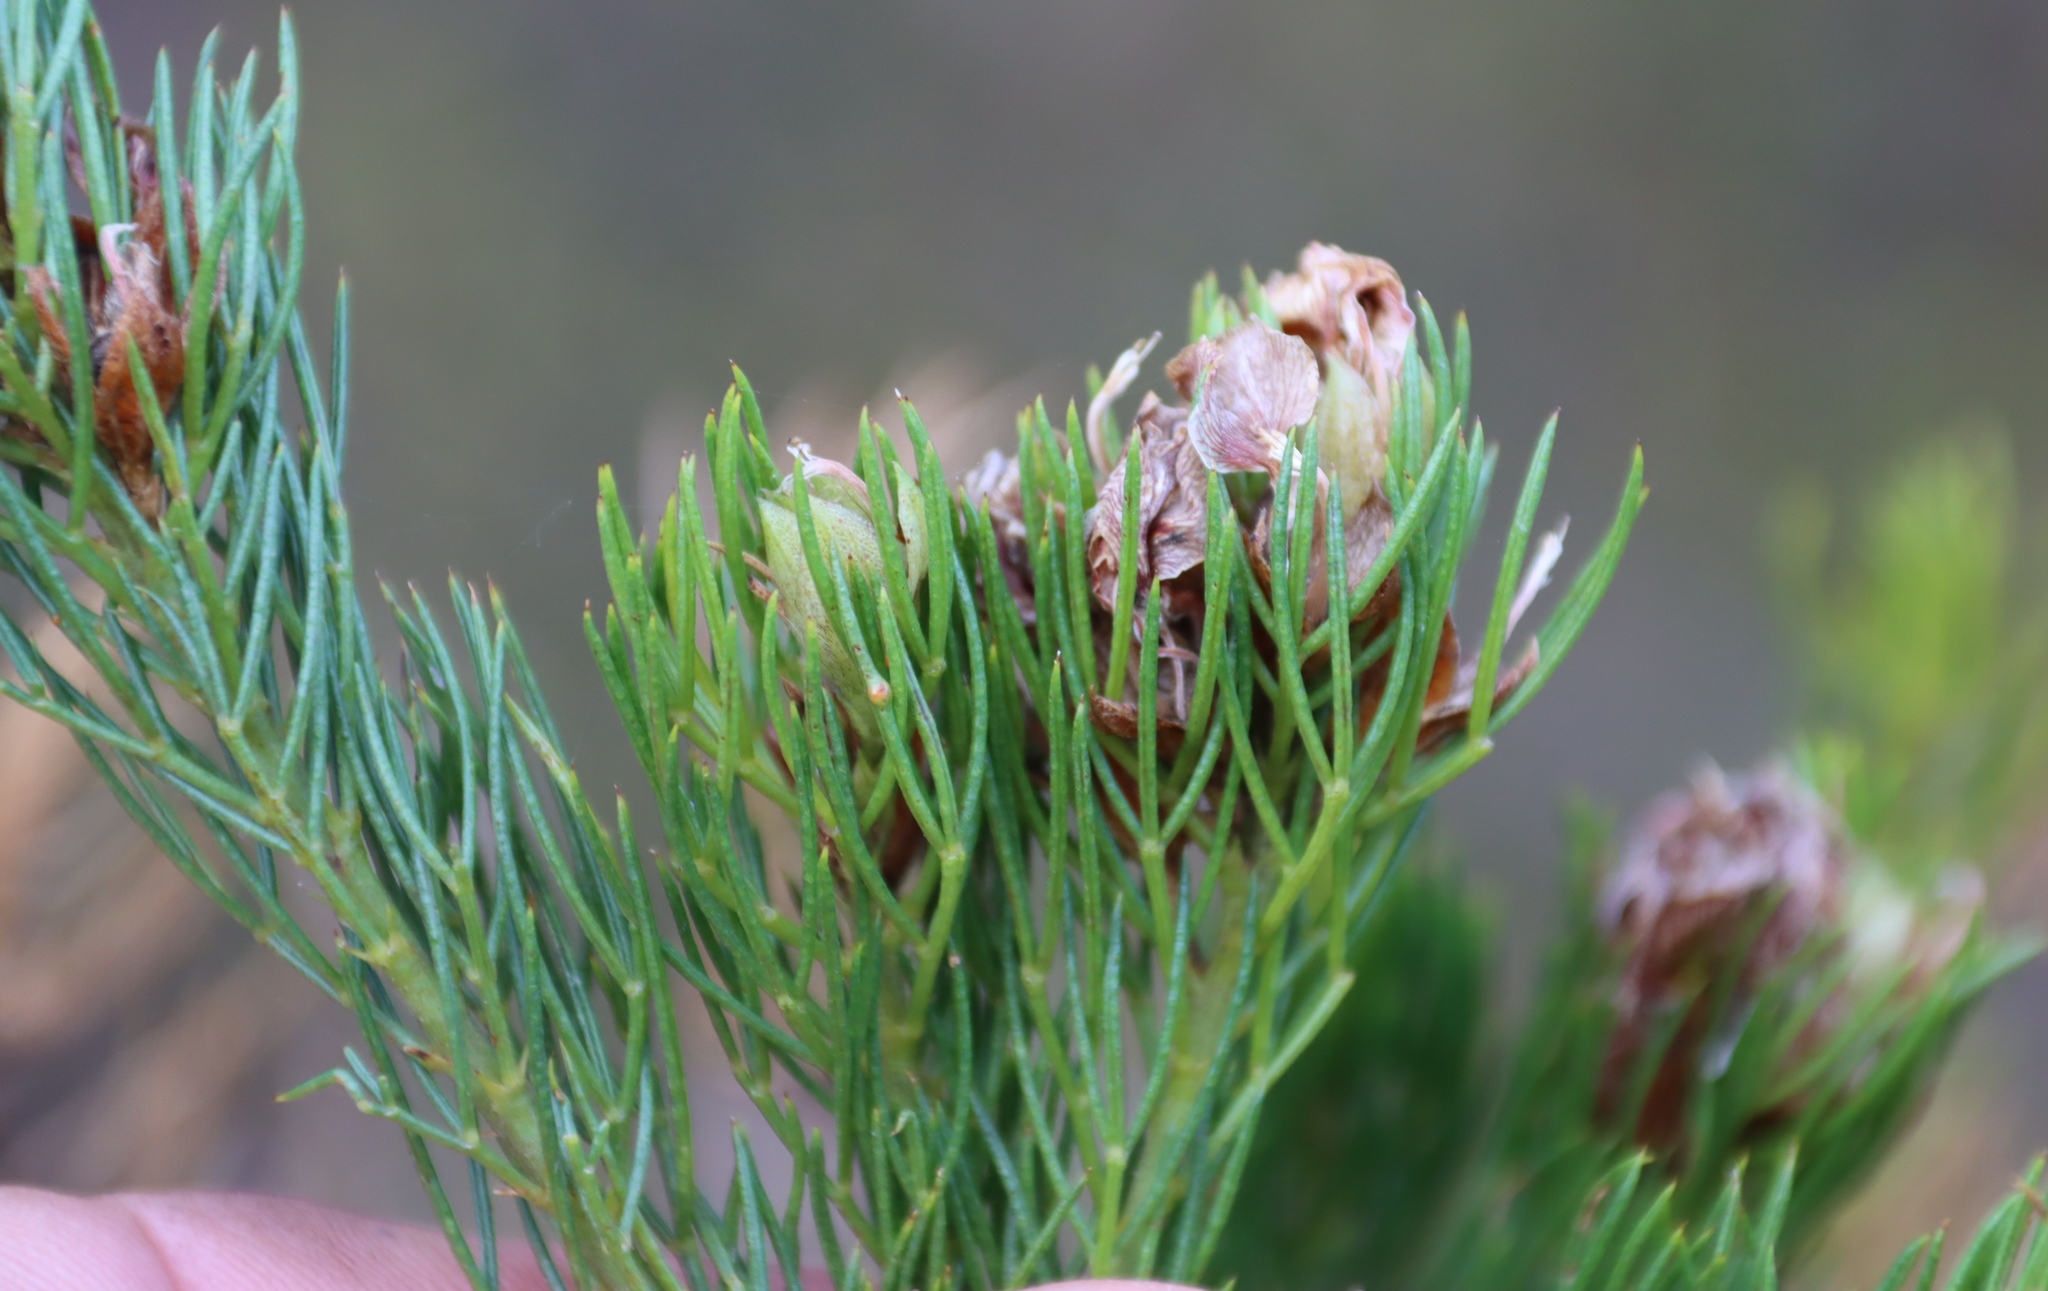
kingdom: Plantae
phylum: Tracheophyta
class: Magnoliopsida
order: Fabales
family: Fabaceae
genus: Psoralea
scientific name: Psoralea speciosa
